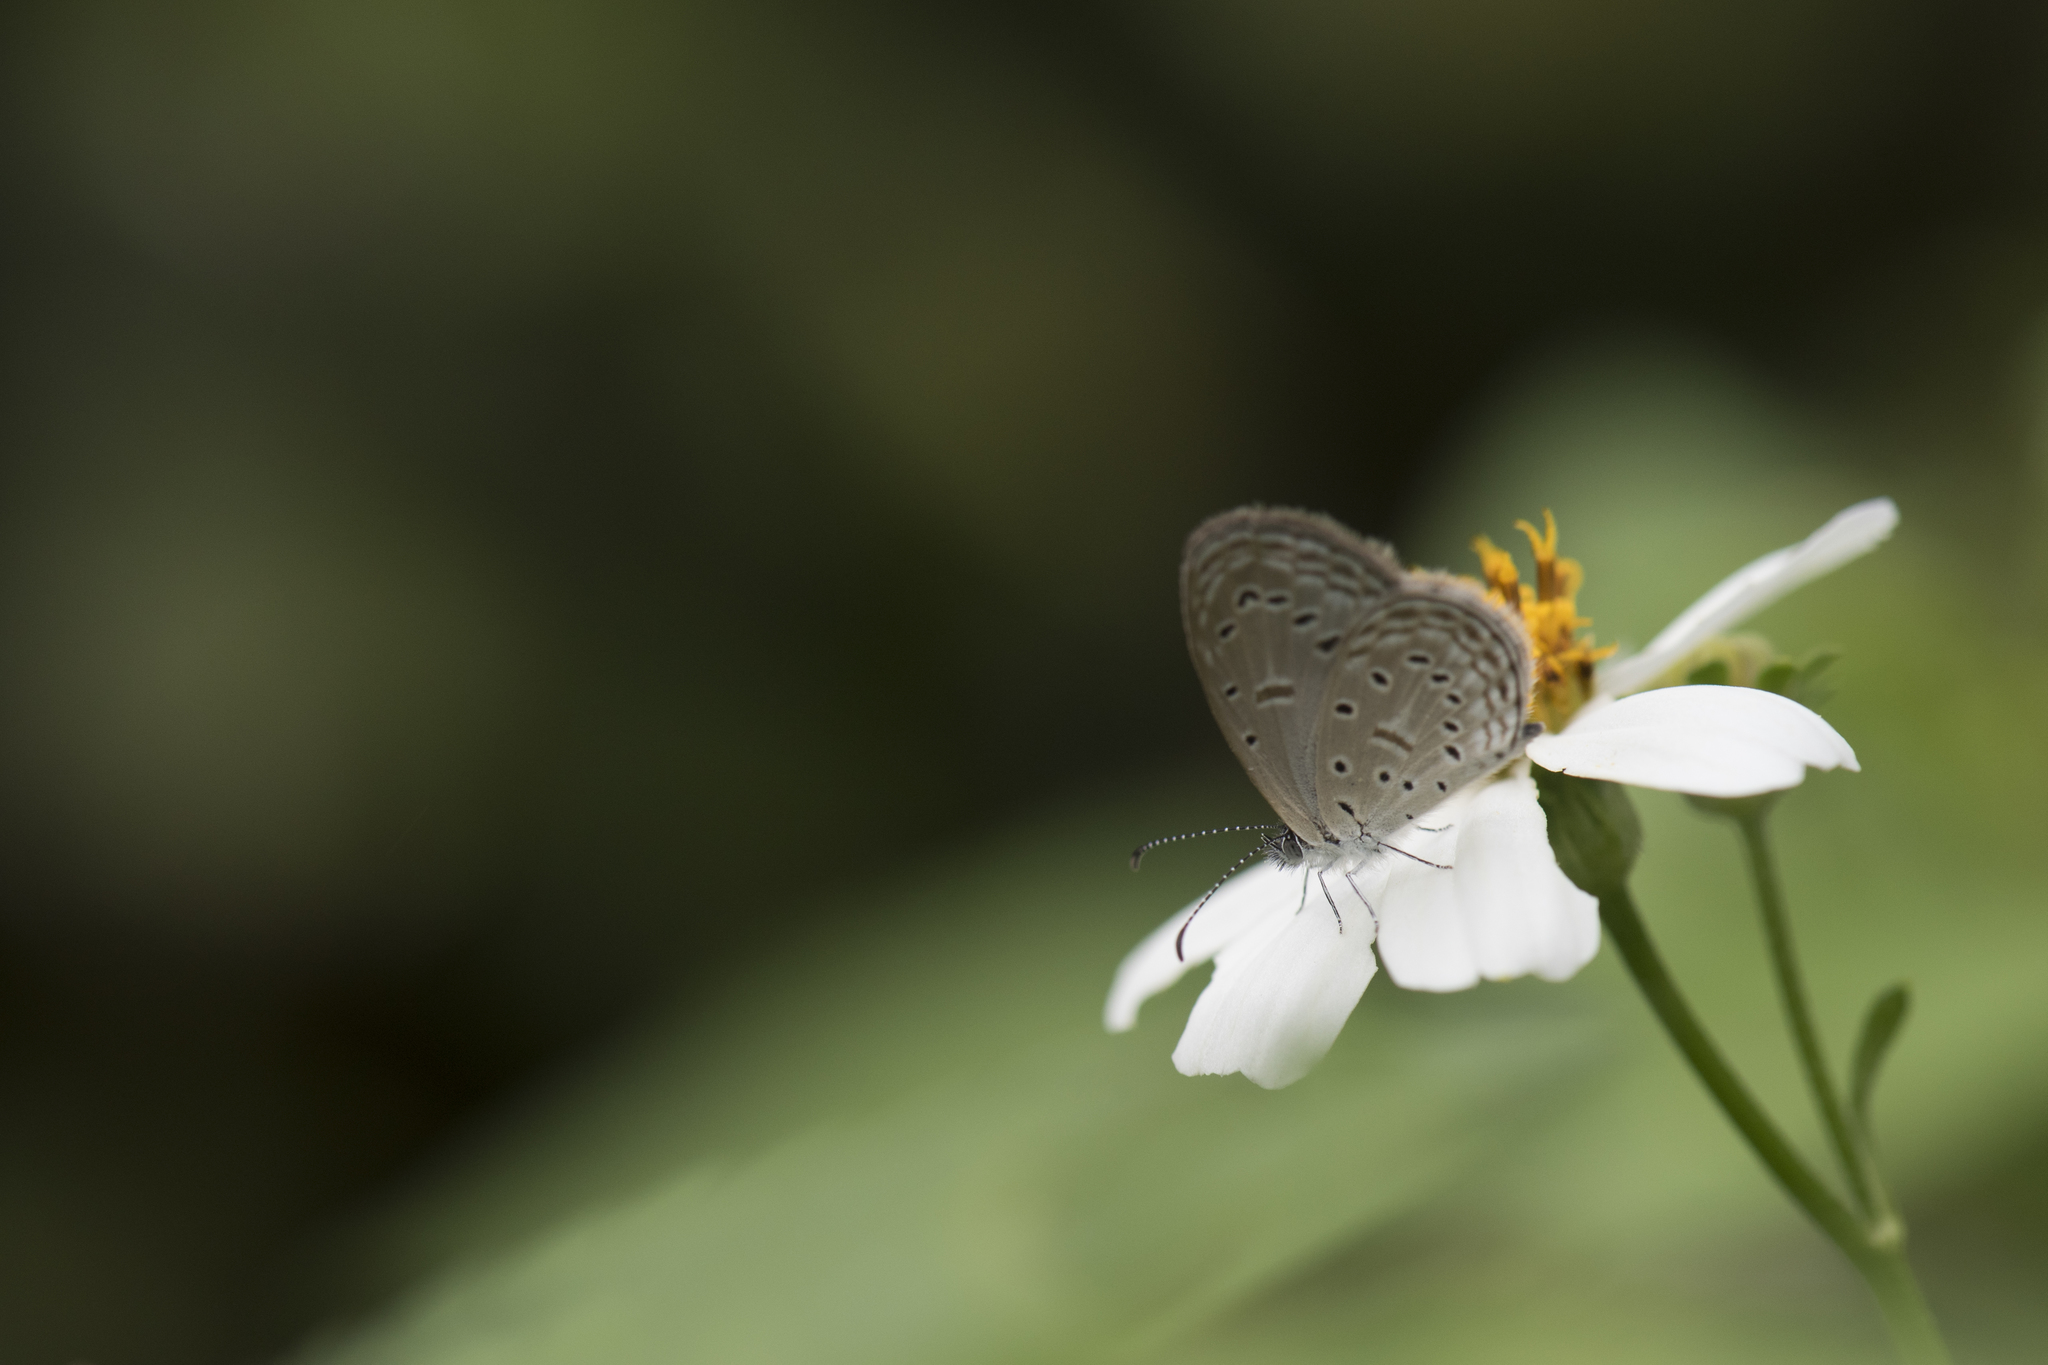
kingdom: Animalia
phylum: Arthropoda
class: Insecta
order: Lepidoptera
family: Lycaenidae
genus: Zizula
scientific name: Zizula hylax
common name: Gaika blue
